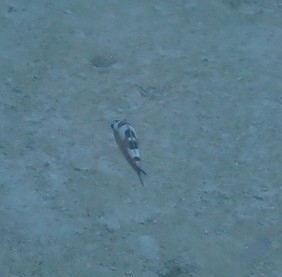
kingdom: Animalia
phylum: Chordata
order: Perciformes
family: Serranidae
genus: Serranus
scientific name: Serranus tabacarius
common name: Tobaccofish
